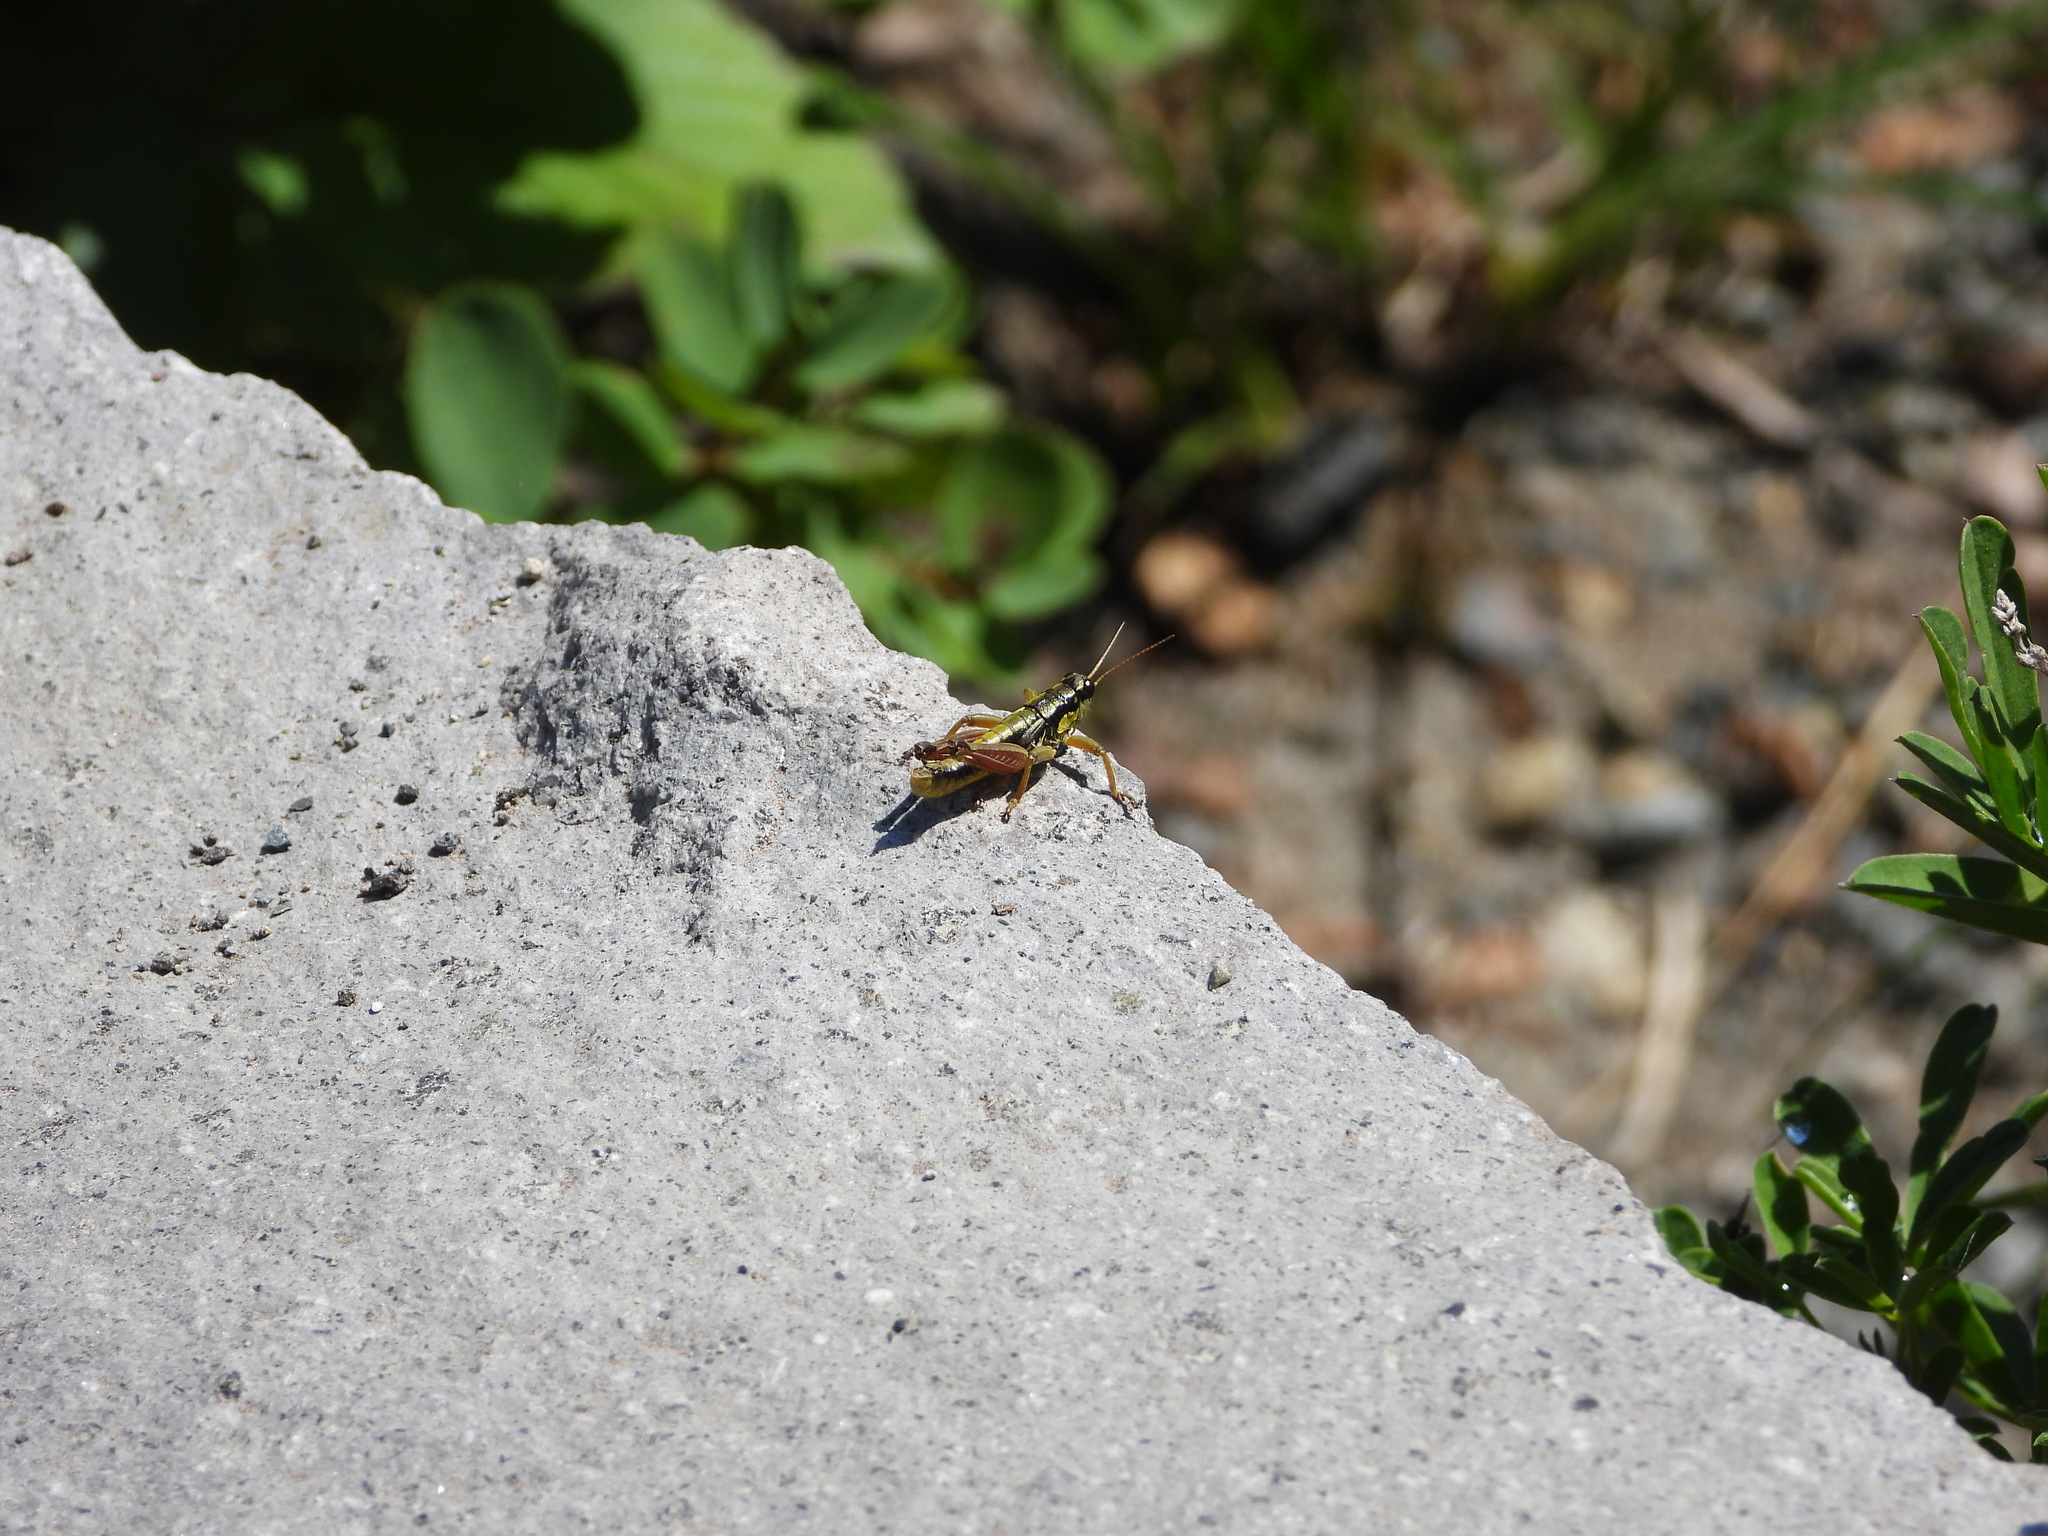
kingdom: Animalia
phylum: Arthropoda
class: Insecta
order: Orthoptera
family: Acrididae
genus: Prumnacris
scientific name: Prumnacris rainierensis
